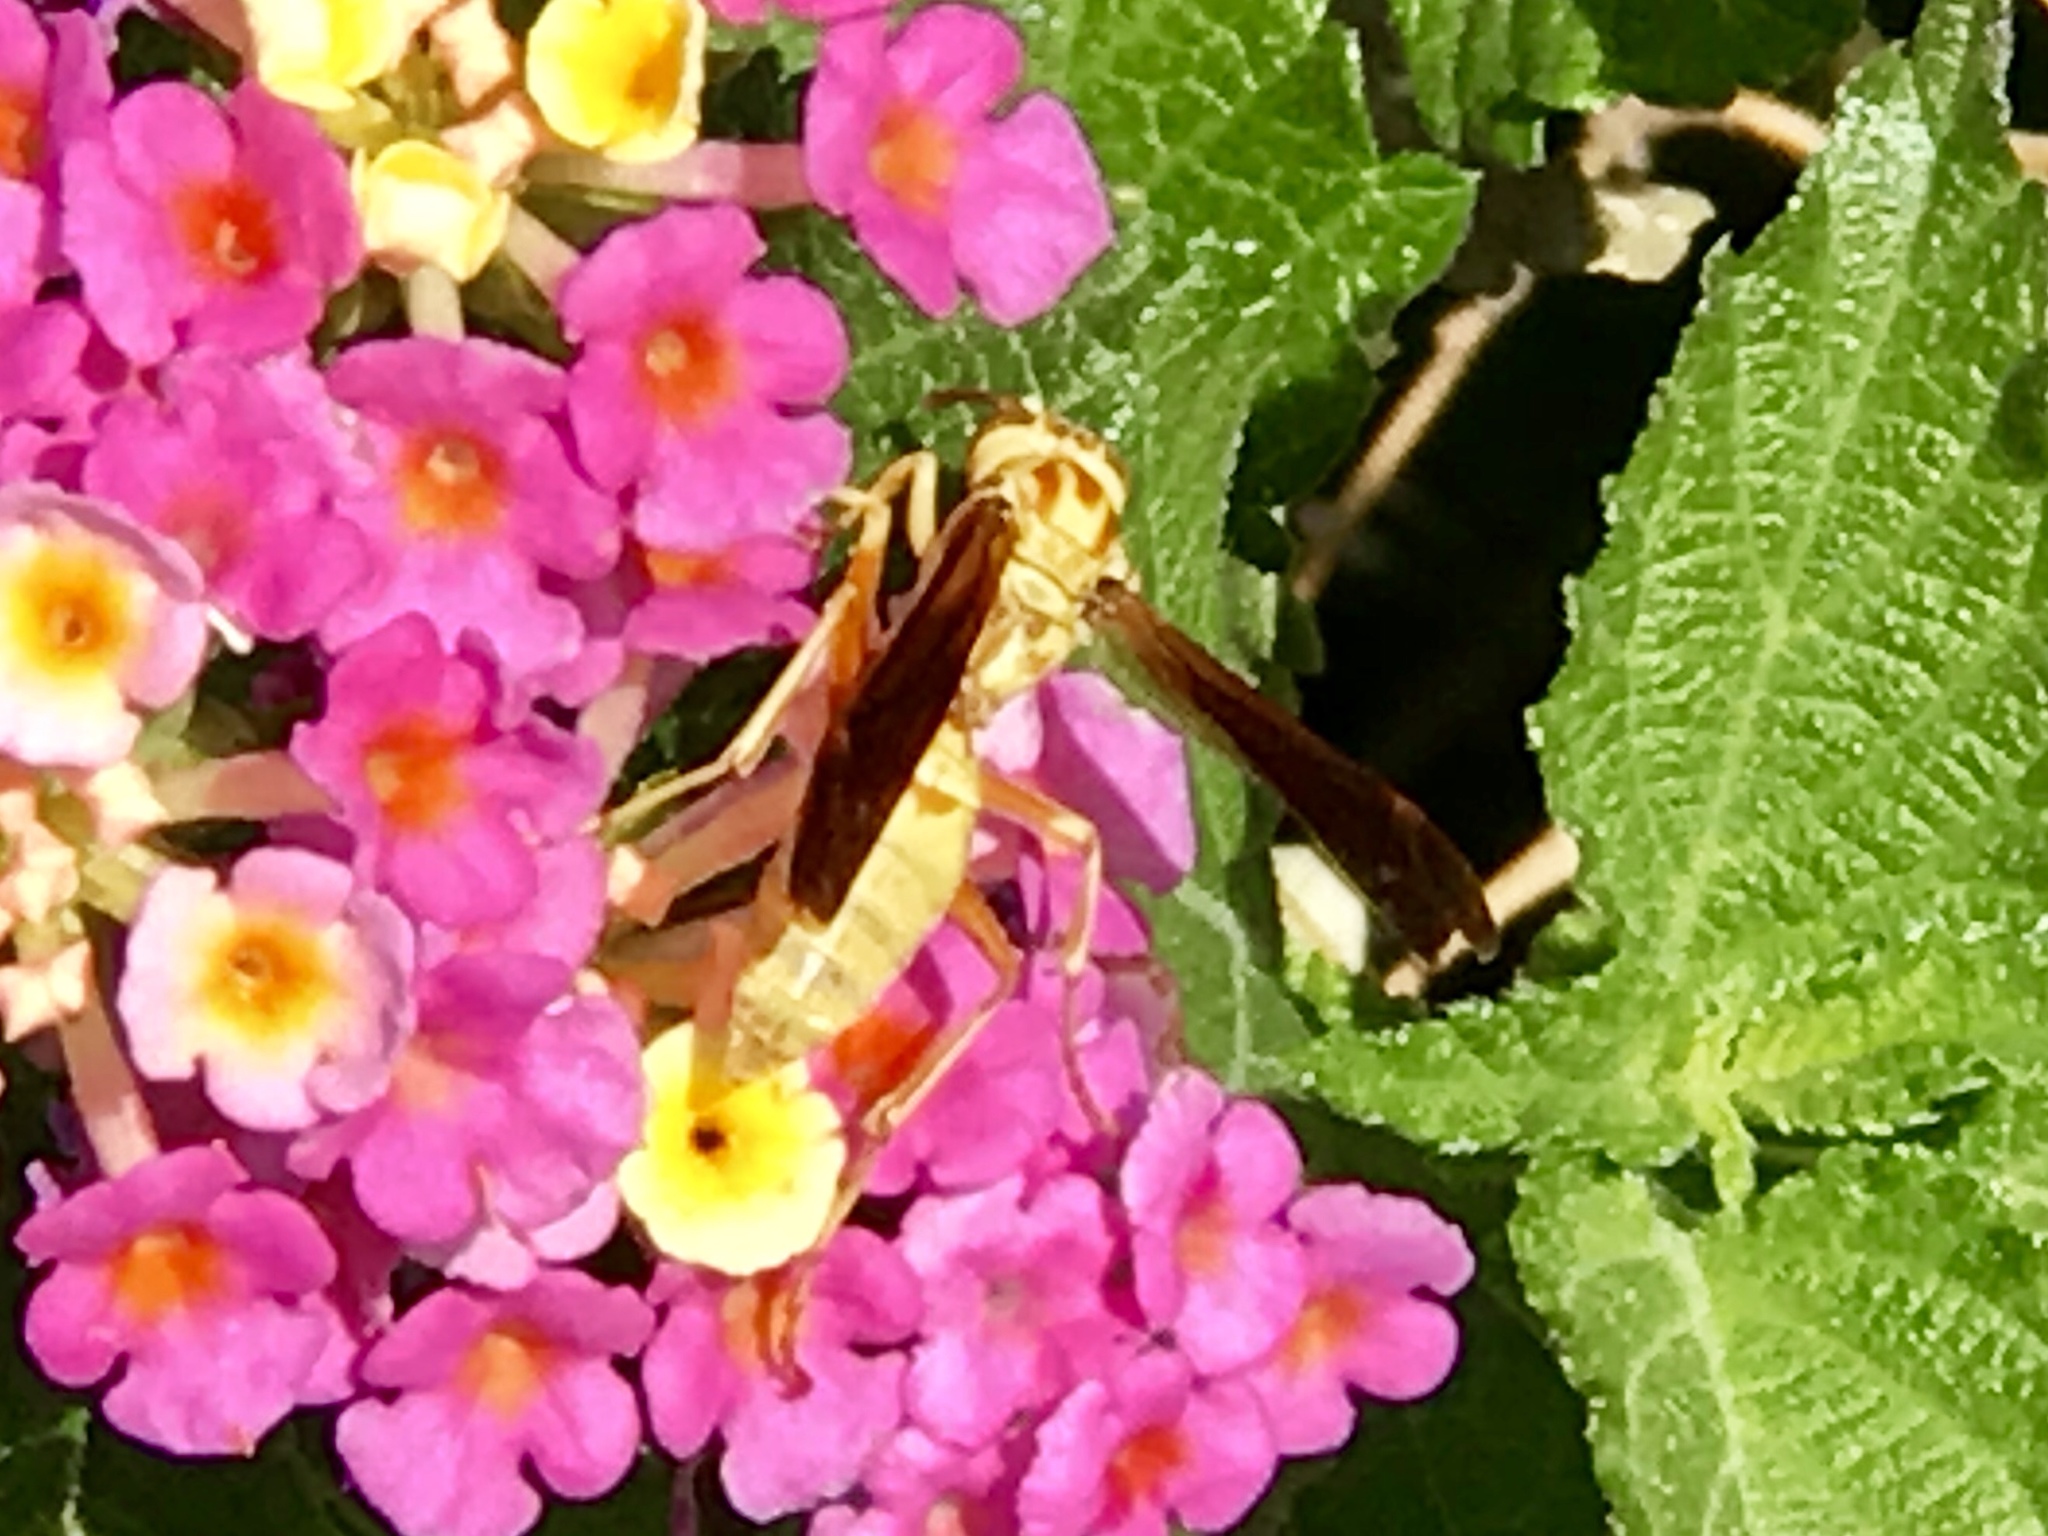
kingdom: Animalia
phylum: Arthropoda
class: Insecta
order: Hymenoptera
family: Eumenidae
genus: Polistes
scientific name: Polistes aurifer
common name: Paper wasp
